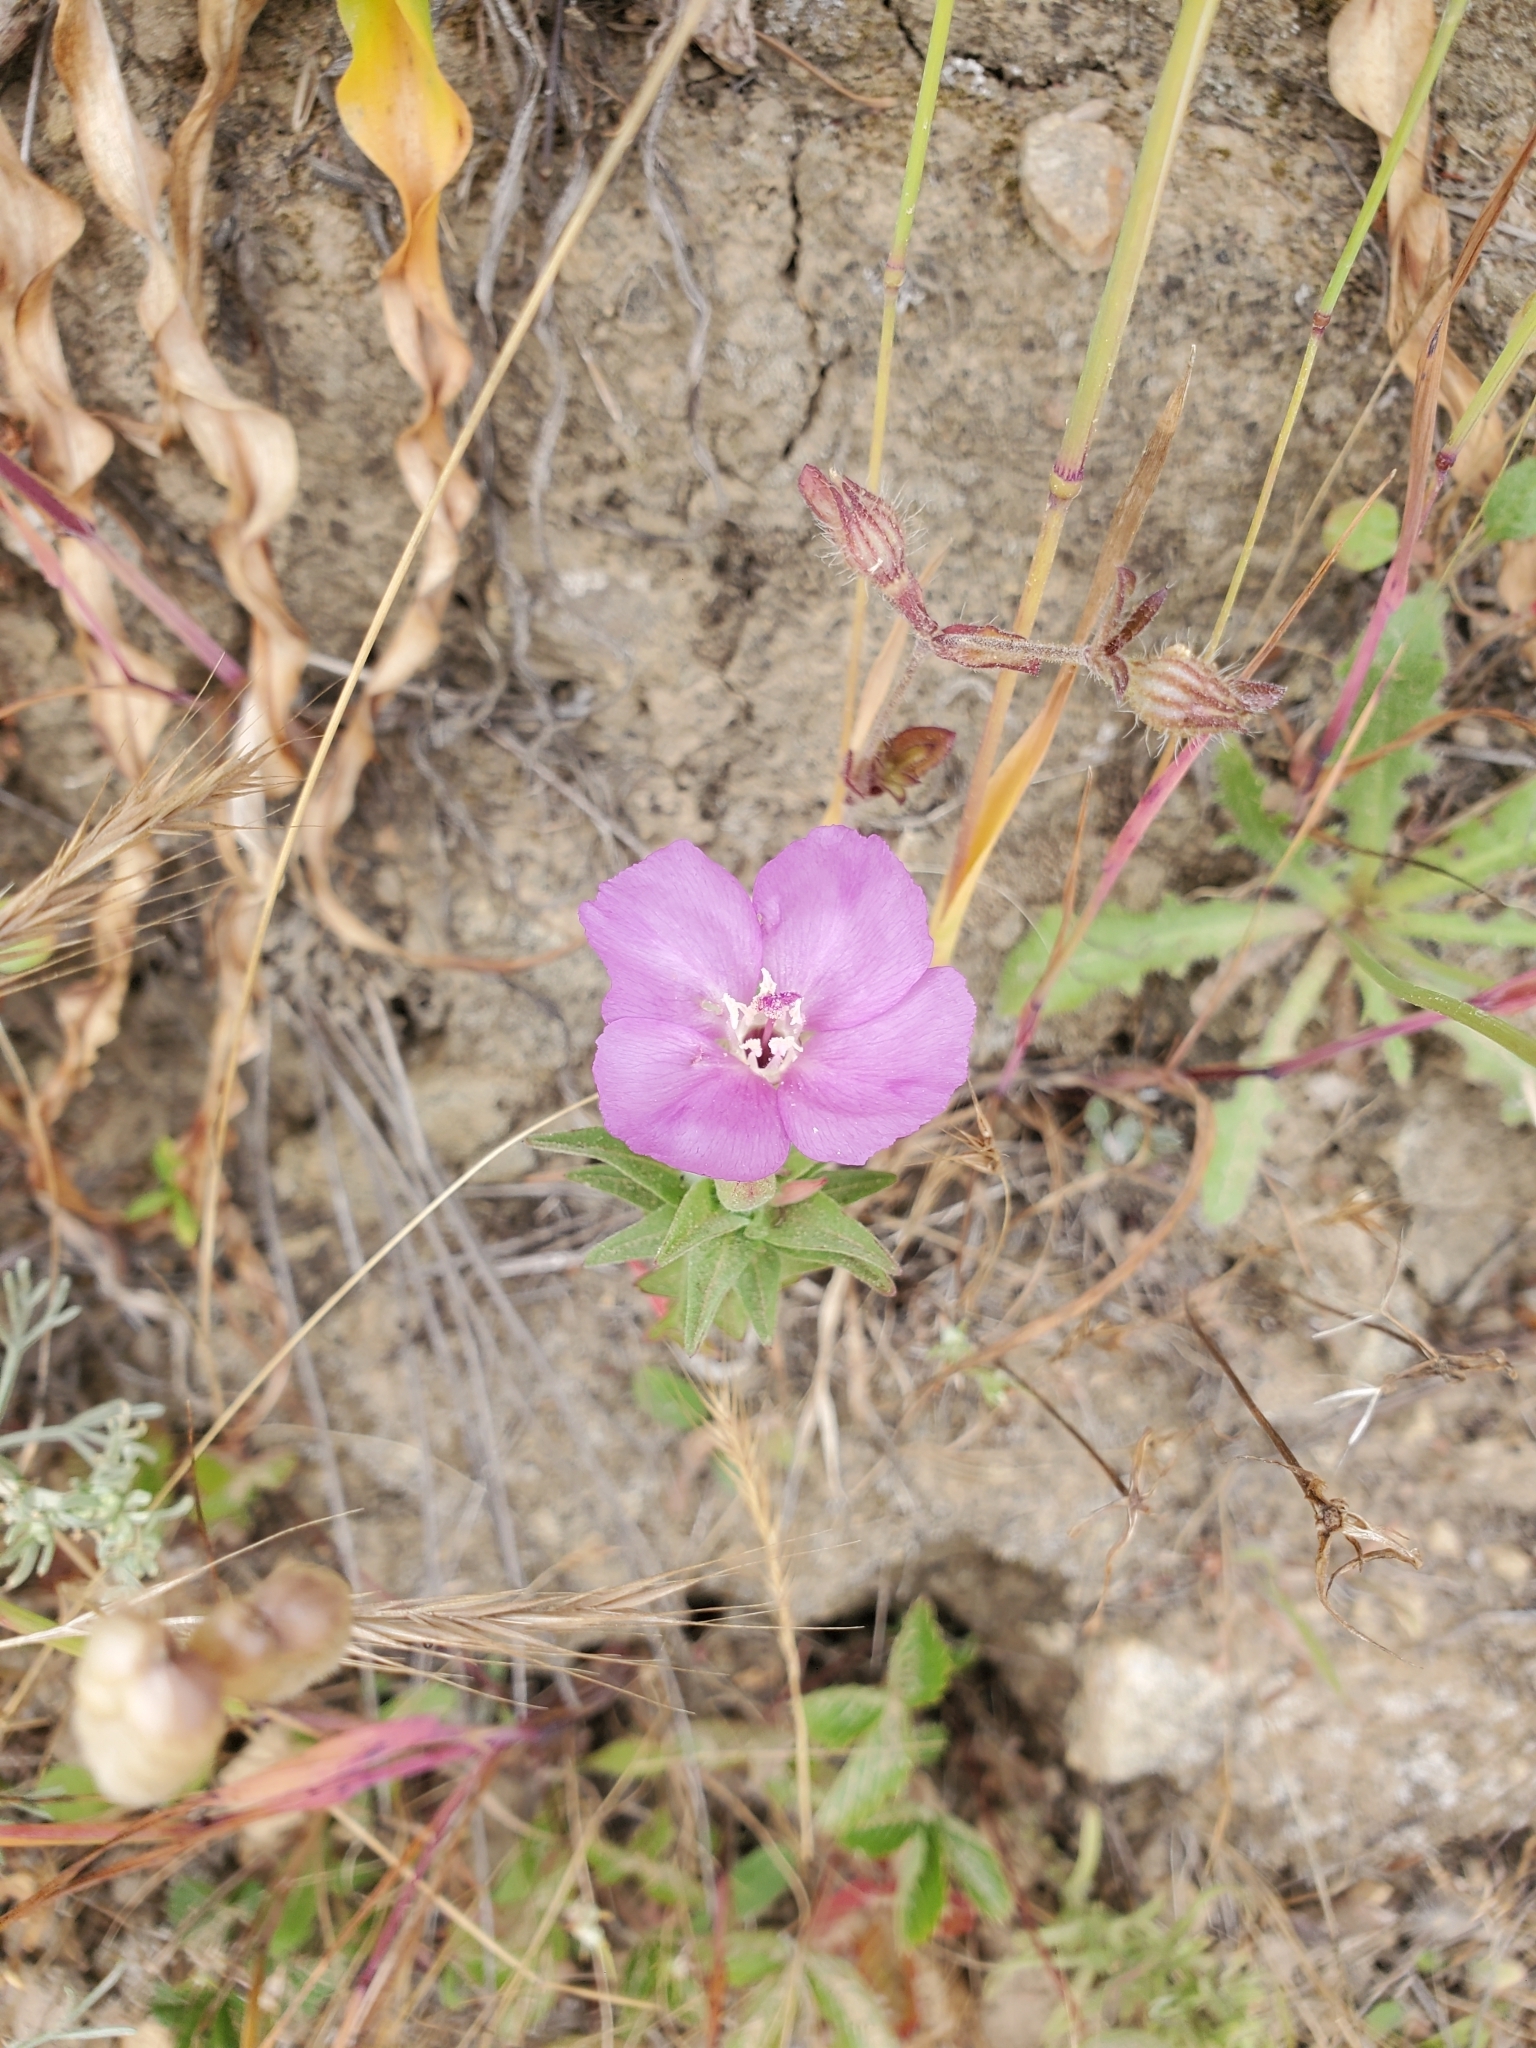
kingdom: Plantae
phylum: Tracheophyta
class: Magnoliopsida
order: Myrtales
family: Onagraceae
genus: Clarkia
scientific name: Clarkia purpurea
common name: Purple clarkia
